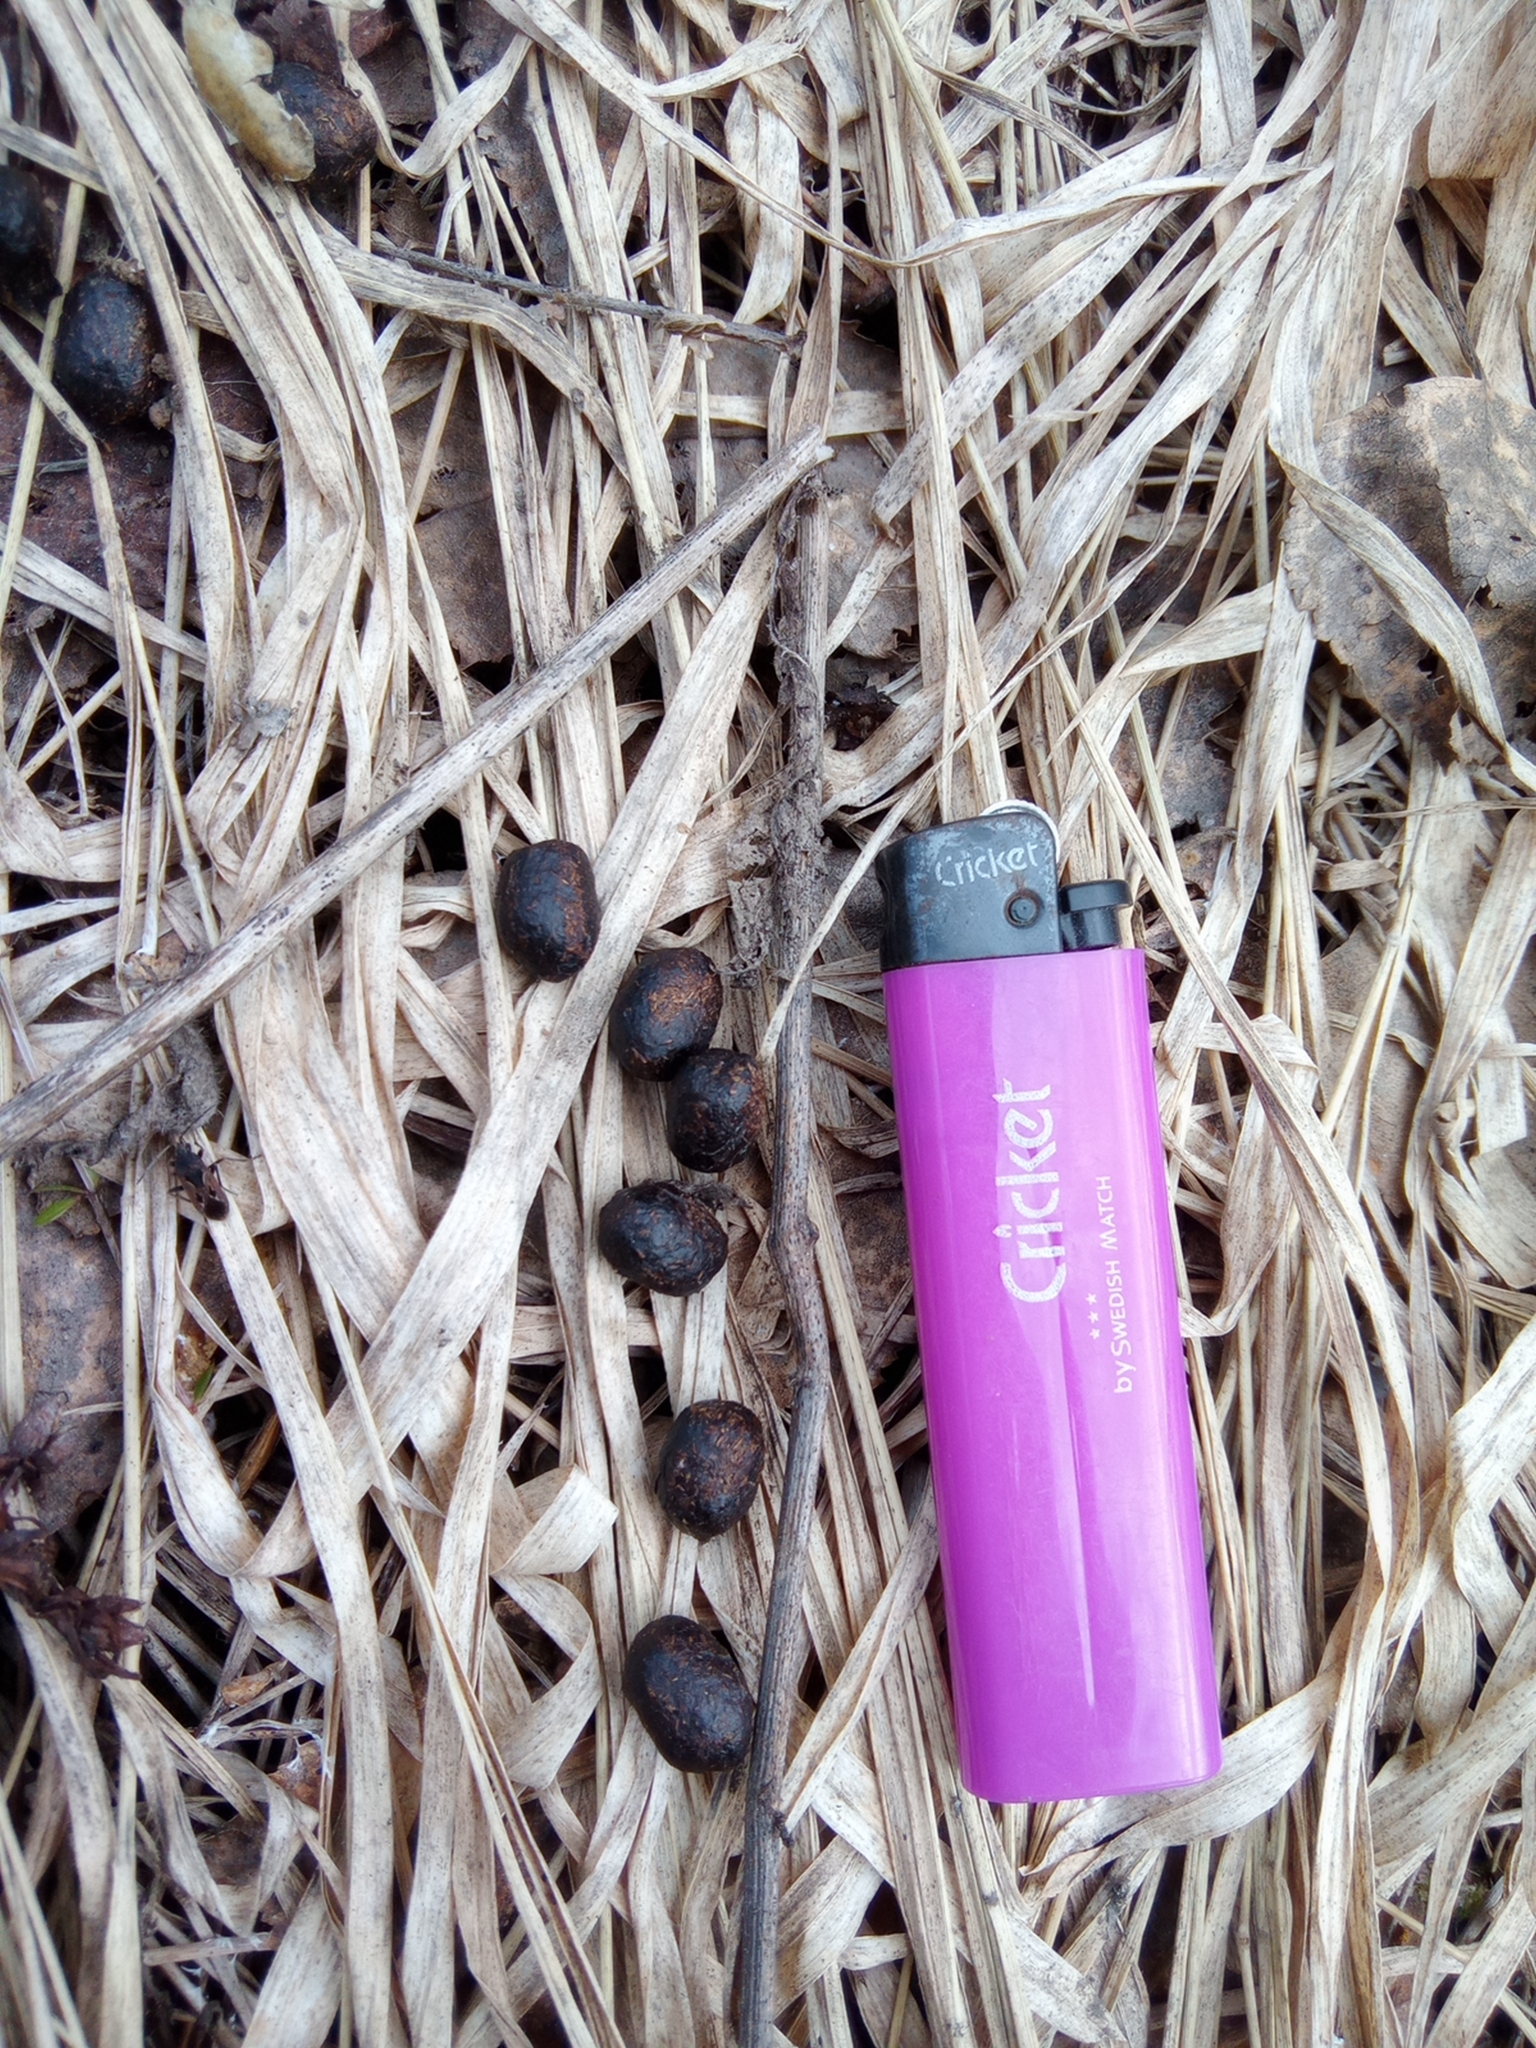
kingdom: Animalia
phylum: Chordata
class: Mammalia
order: Artiodactyla
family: Cervidae
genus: Capreolus
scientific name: Capreolus pygargus
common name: Siberian roe
